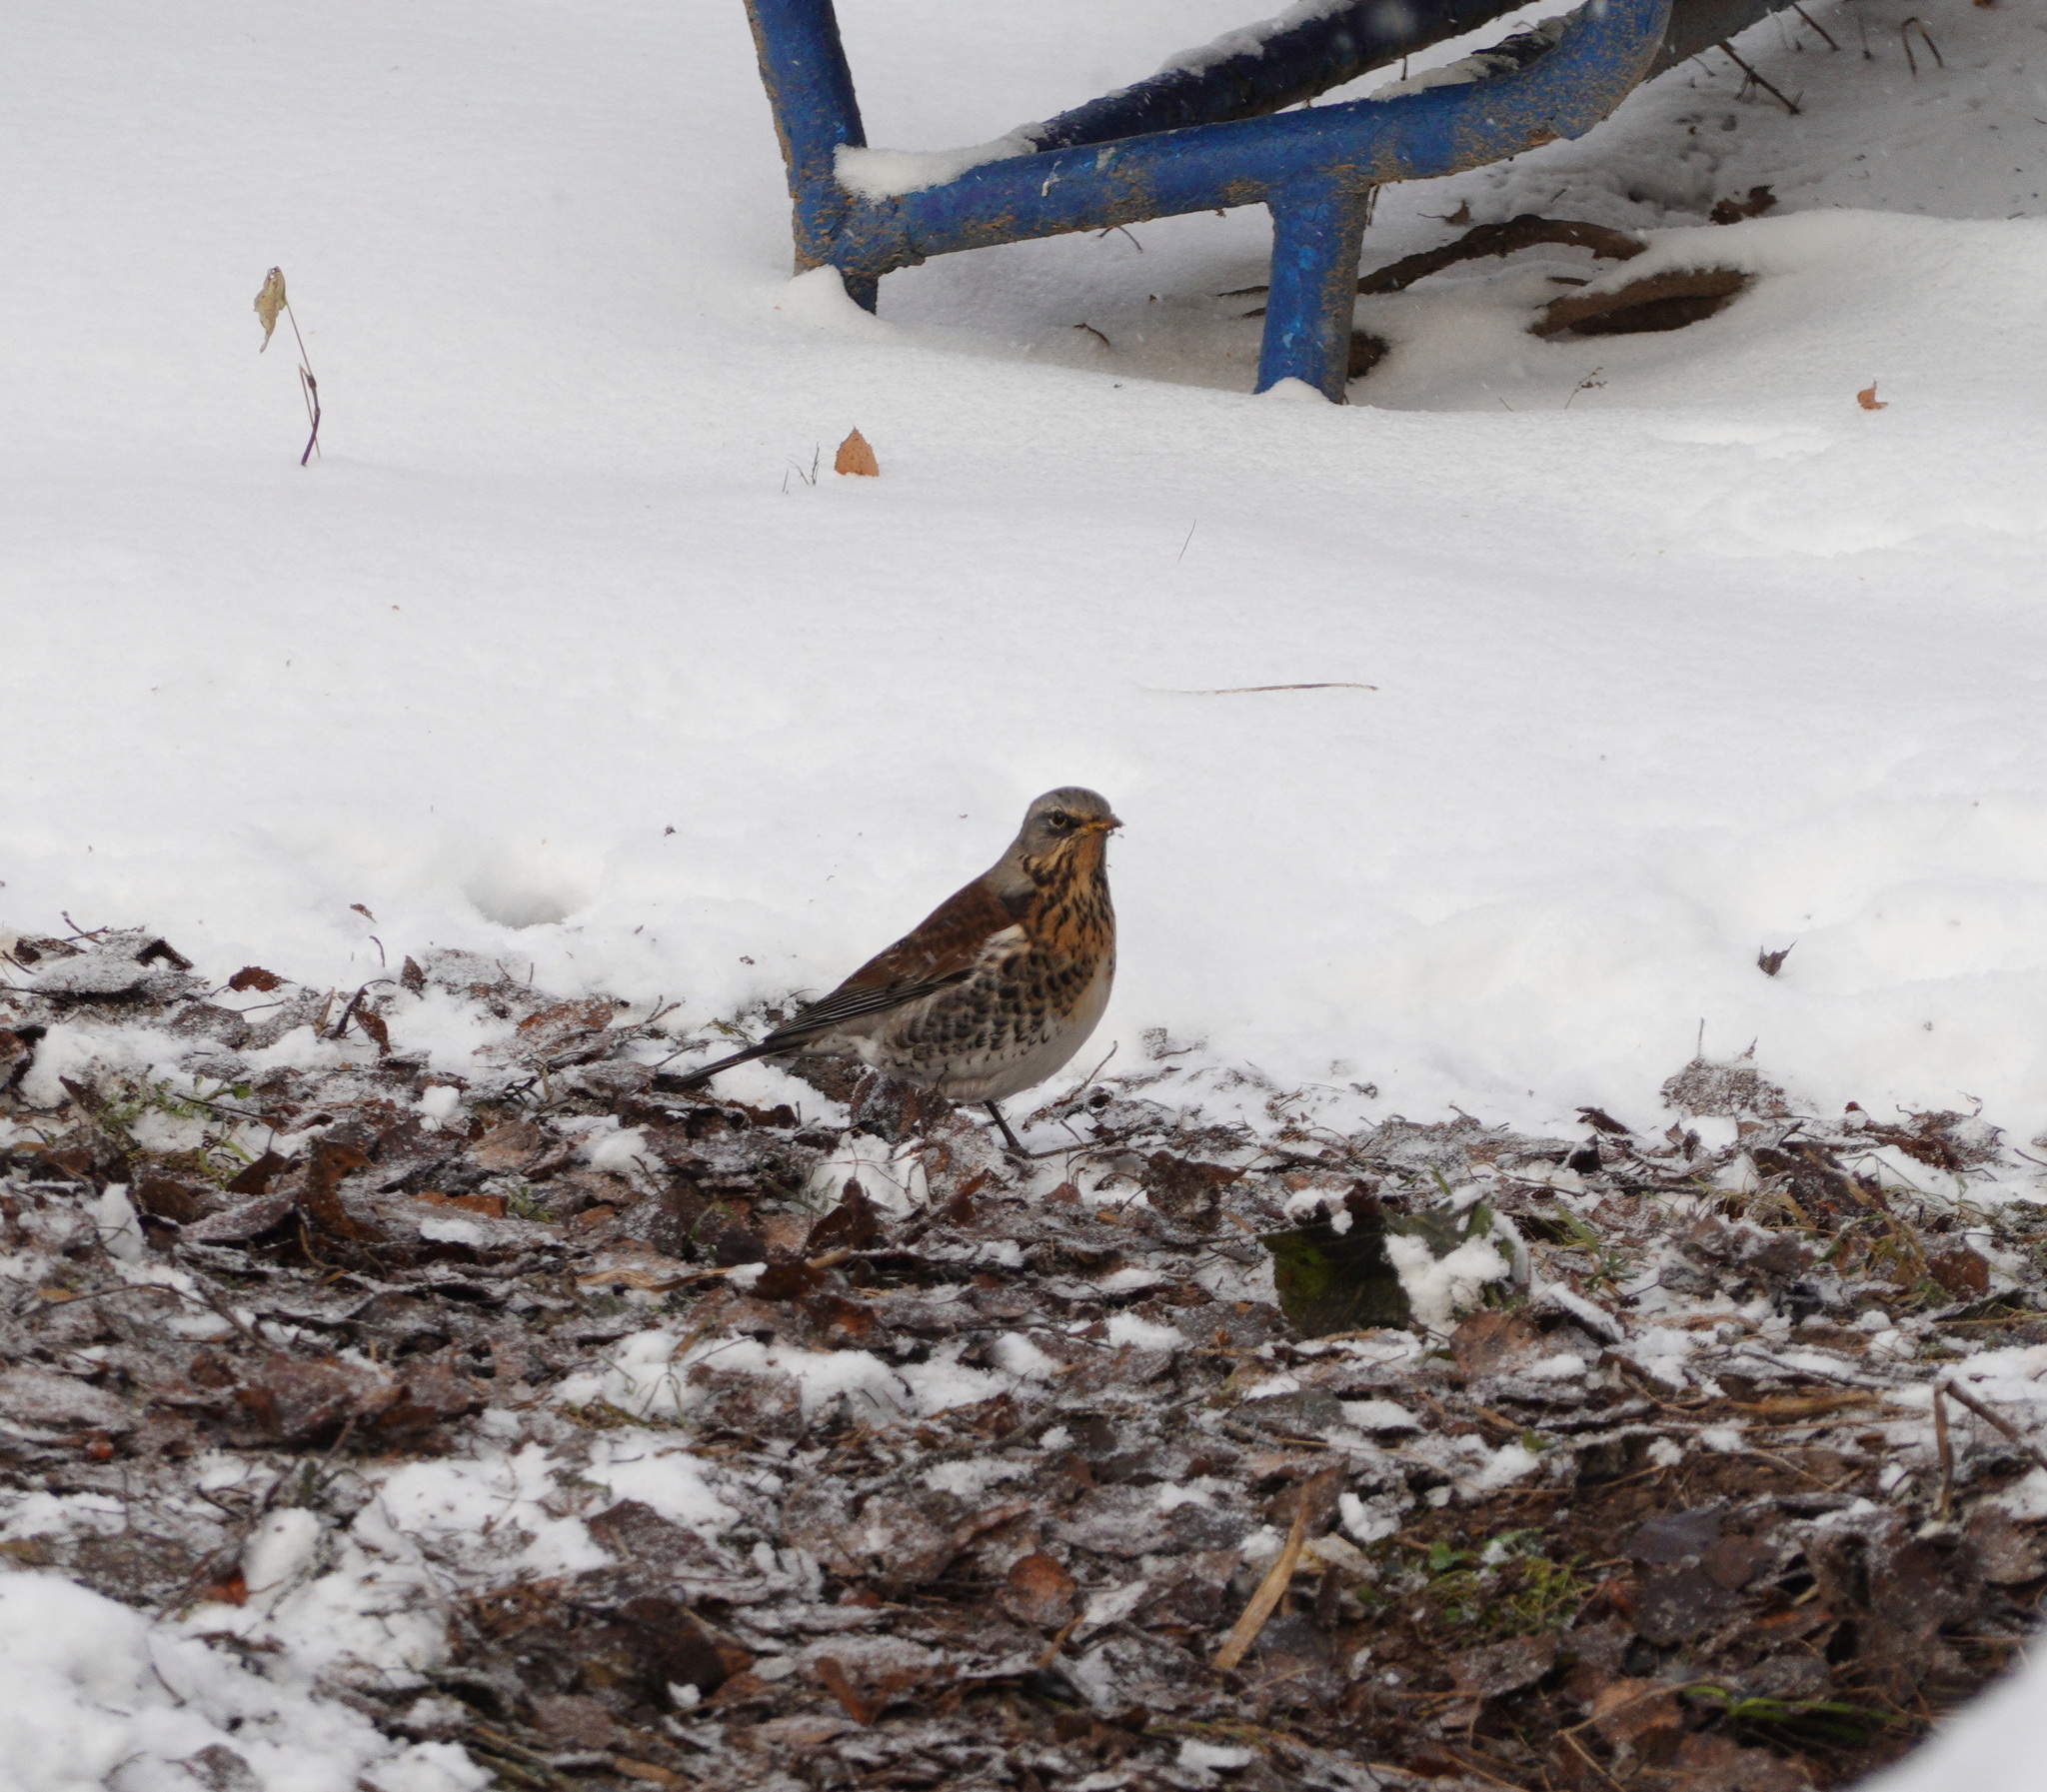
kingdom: Animalia
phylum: Chordata
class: Aves
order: Passeriformes
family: Turdidae
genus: Turdus
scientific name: Turdus pilaris
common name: Fieldfare
